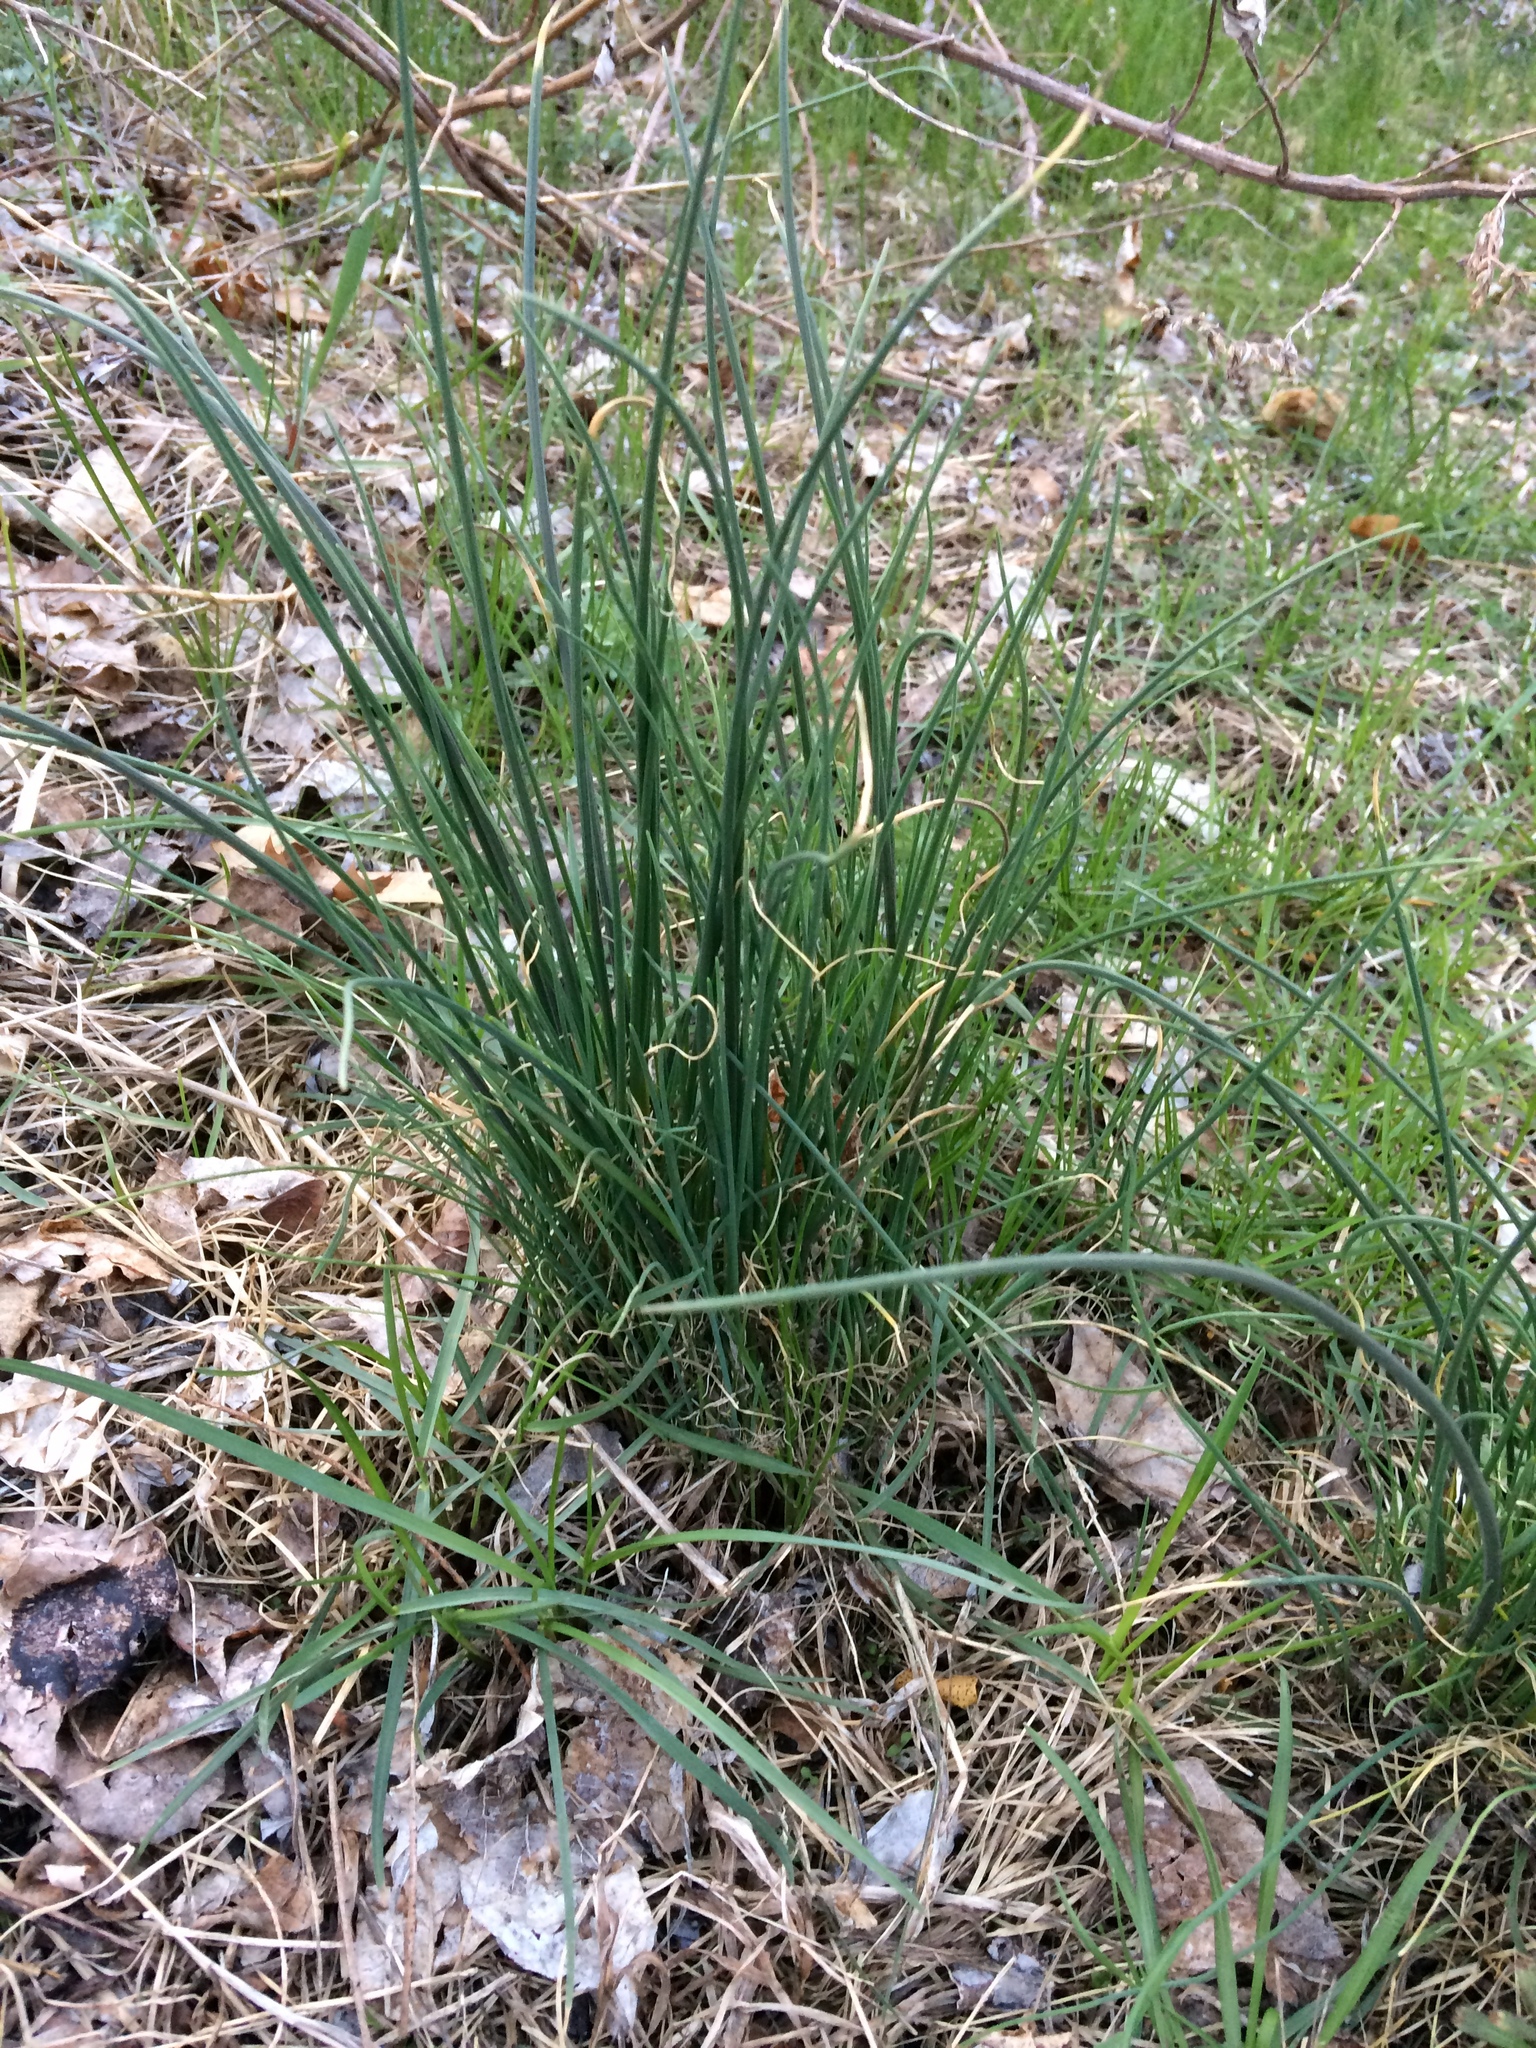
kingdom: Plantae
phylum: Tracheophyta
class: Liliopsida
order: Asparagales
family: Amaryllidaceae
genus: Allium
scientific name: Allium vineale
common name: Crow garlic
